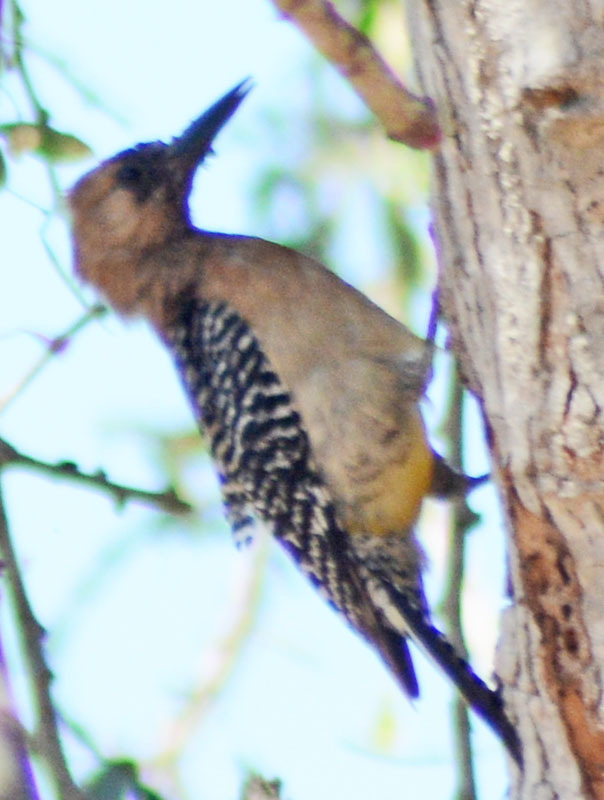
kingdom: Animalia
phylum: Chordata
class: Aves
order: Piciformes
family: Picidae
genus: Melanerpes
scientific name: Melanerpes uropygialis
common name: Gila woodpecker
